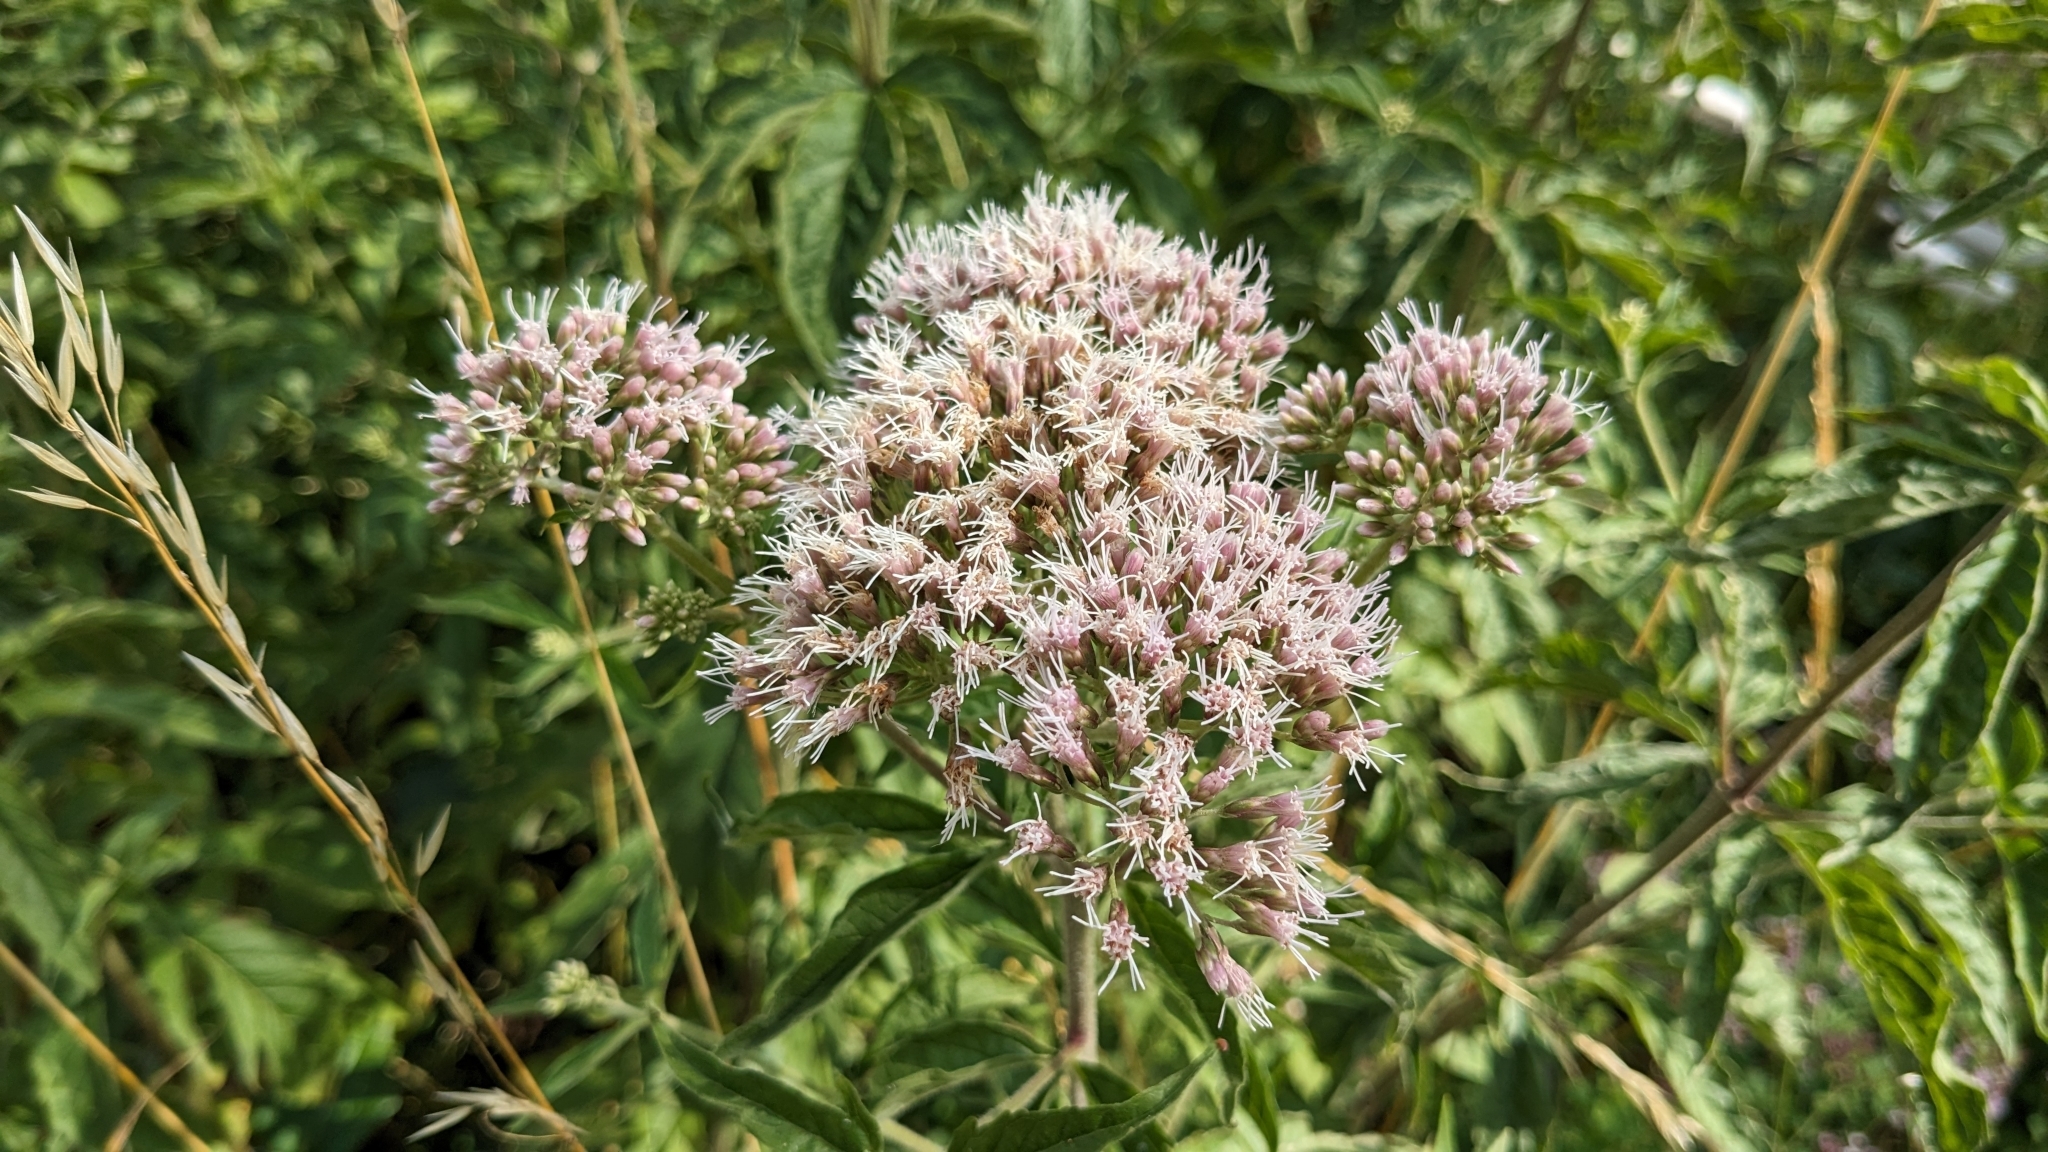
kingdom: Plantae
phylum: Tracheophyta
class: Magnoliopsida
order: Asterales
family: Asteraceae
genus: Eupatorium
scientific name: Eupatorium cannabinum
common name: Hemp-agrimony
